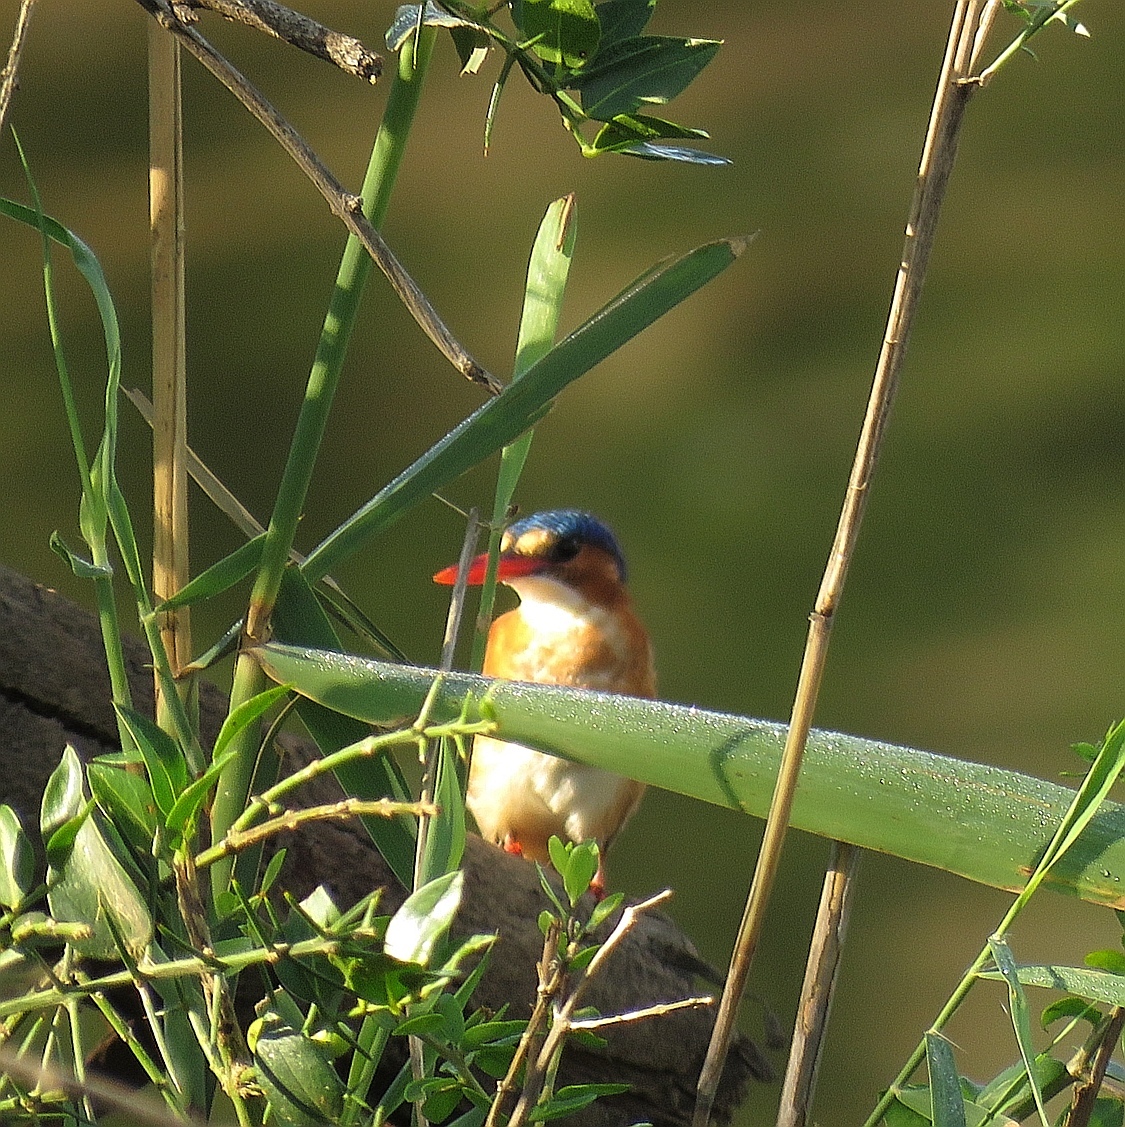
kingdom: Animalia
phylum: Chordata
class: Aves
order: Coraciiformes
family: Alcedinidae
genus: Corythornis
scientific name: Corythornis cristatus
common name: Malachite kingfisher
